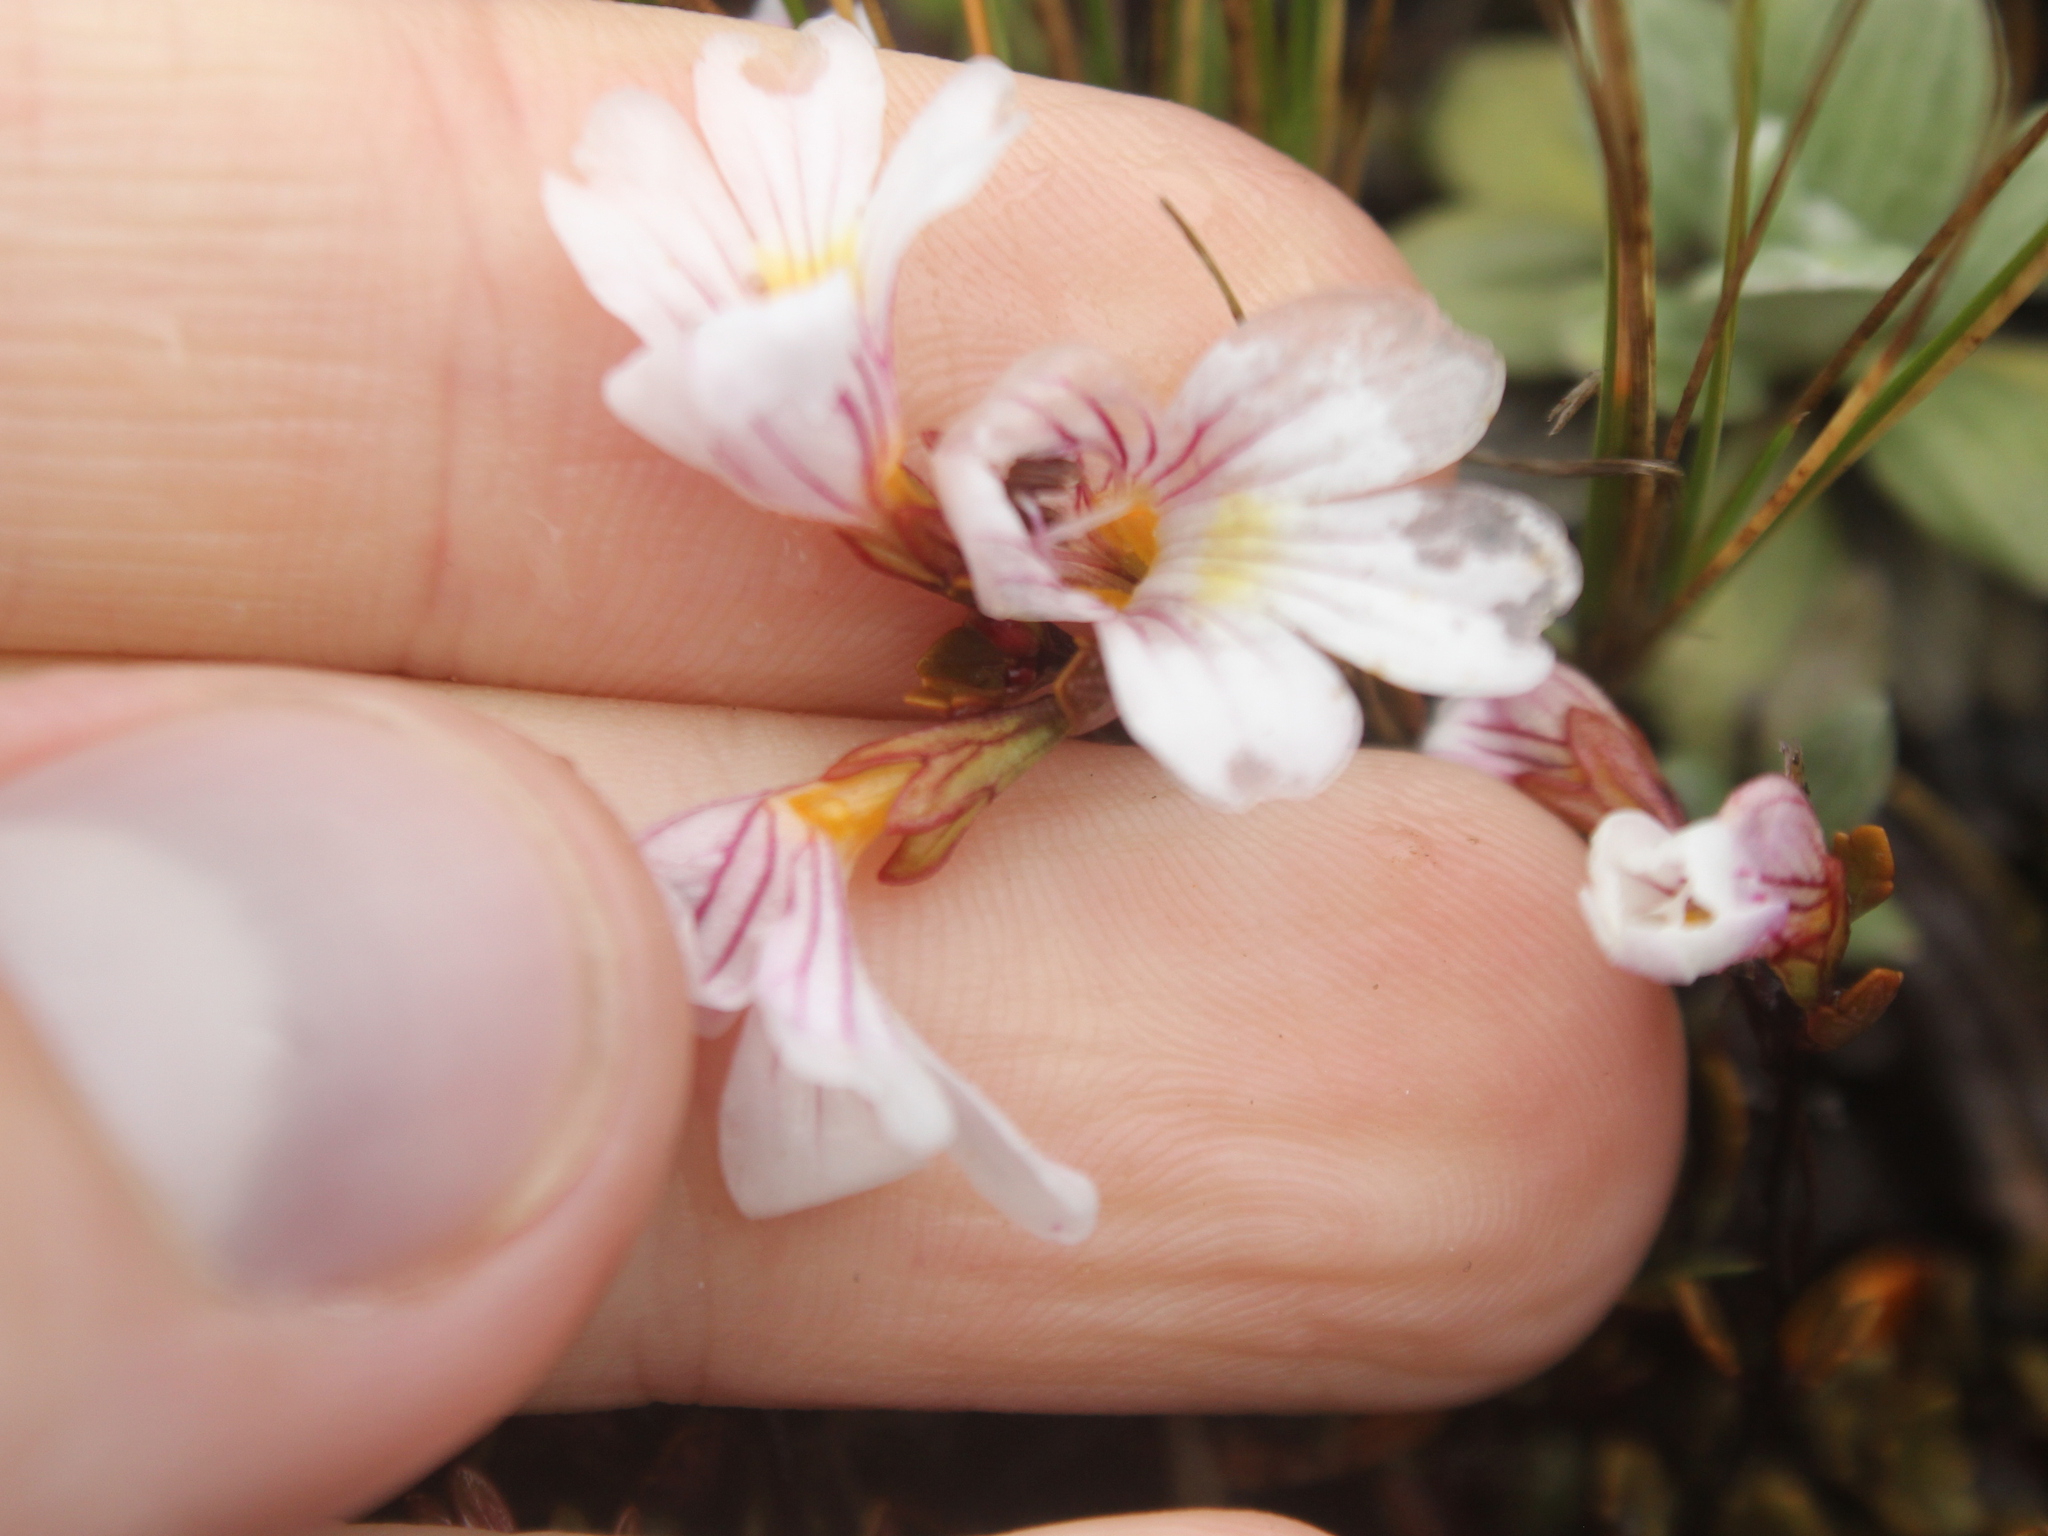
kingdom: Plantae
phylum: Tracheophyta
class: Magnoliopsida
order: Lamiales
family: Orobanchaceae
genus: Euphrasia
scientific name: Euphrasia cuneata
